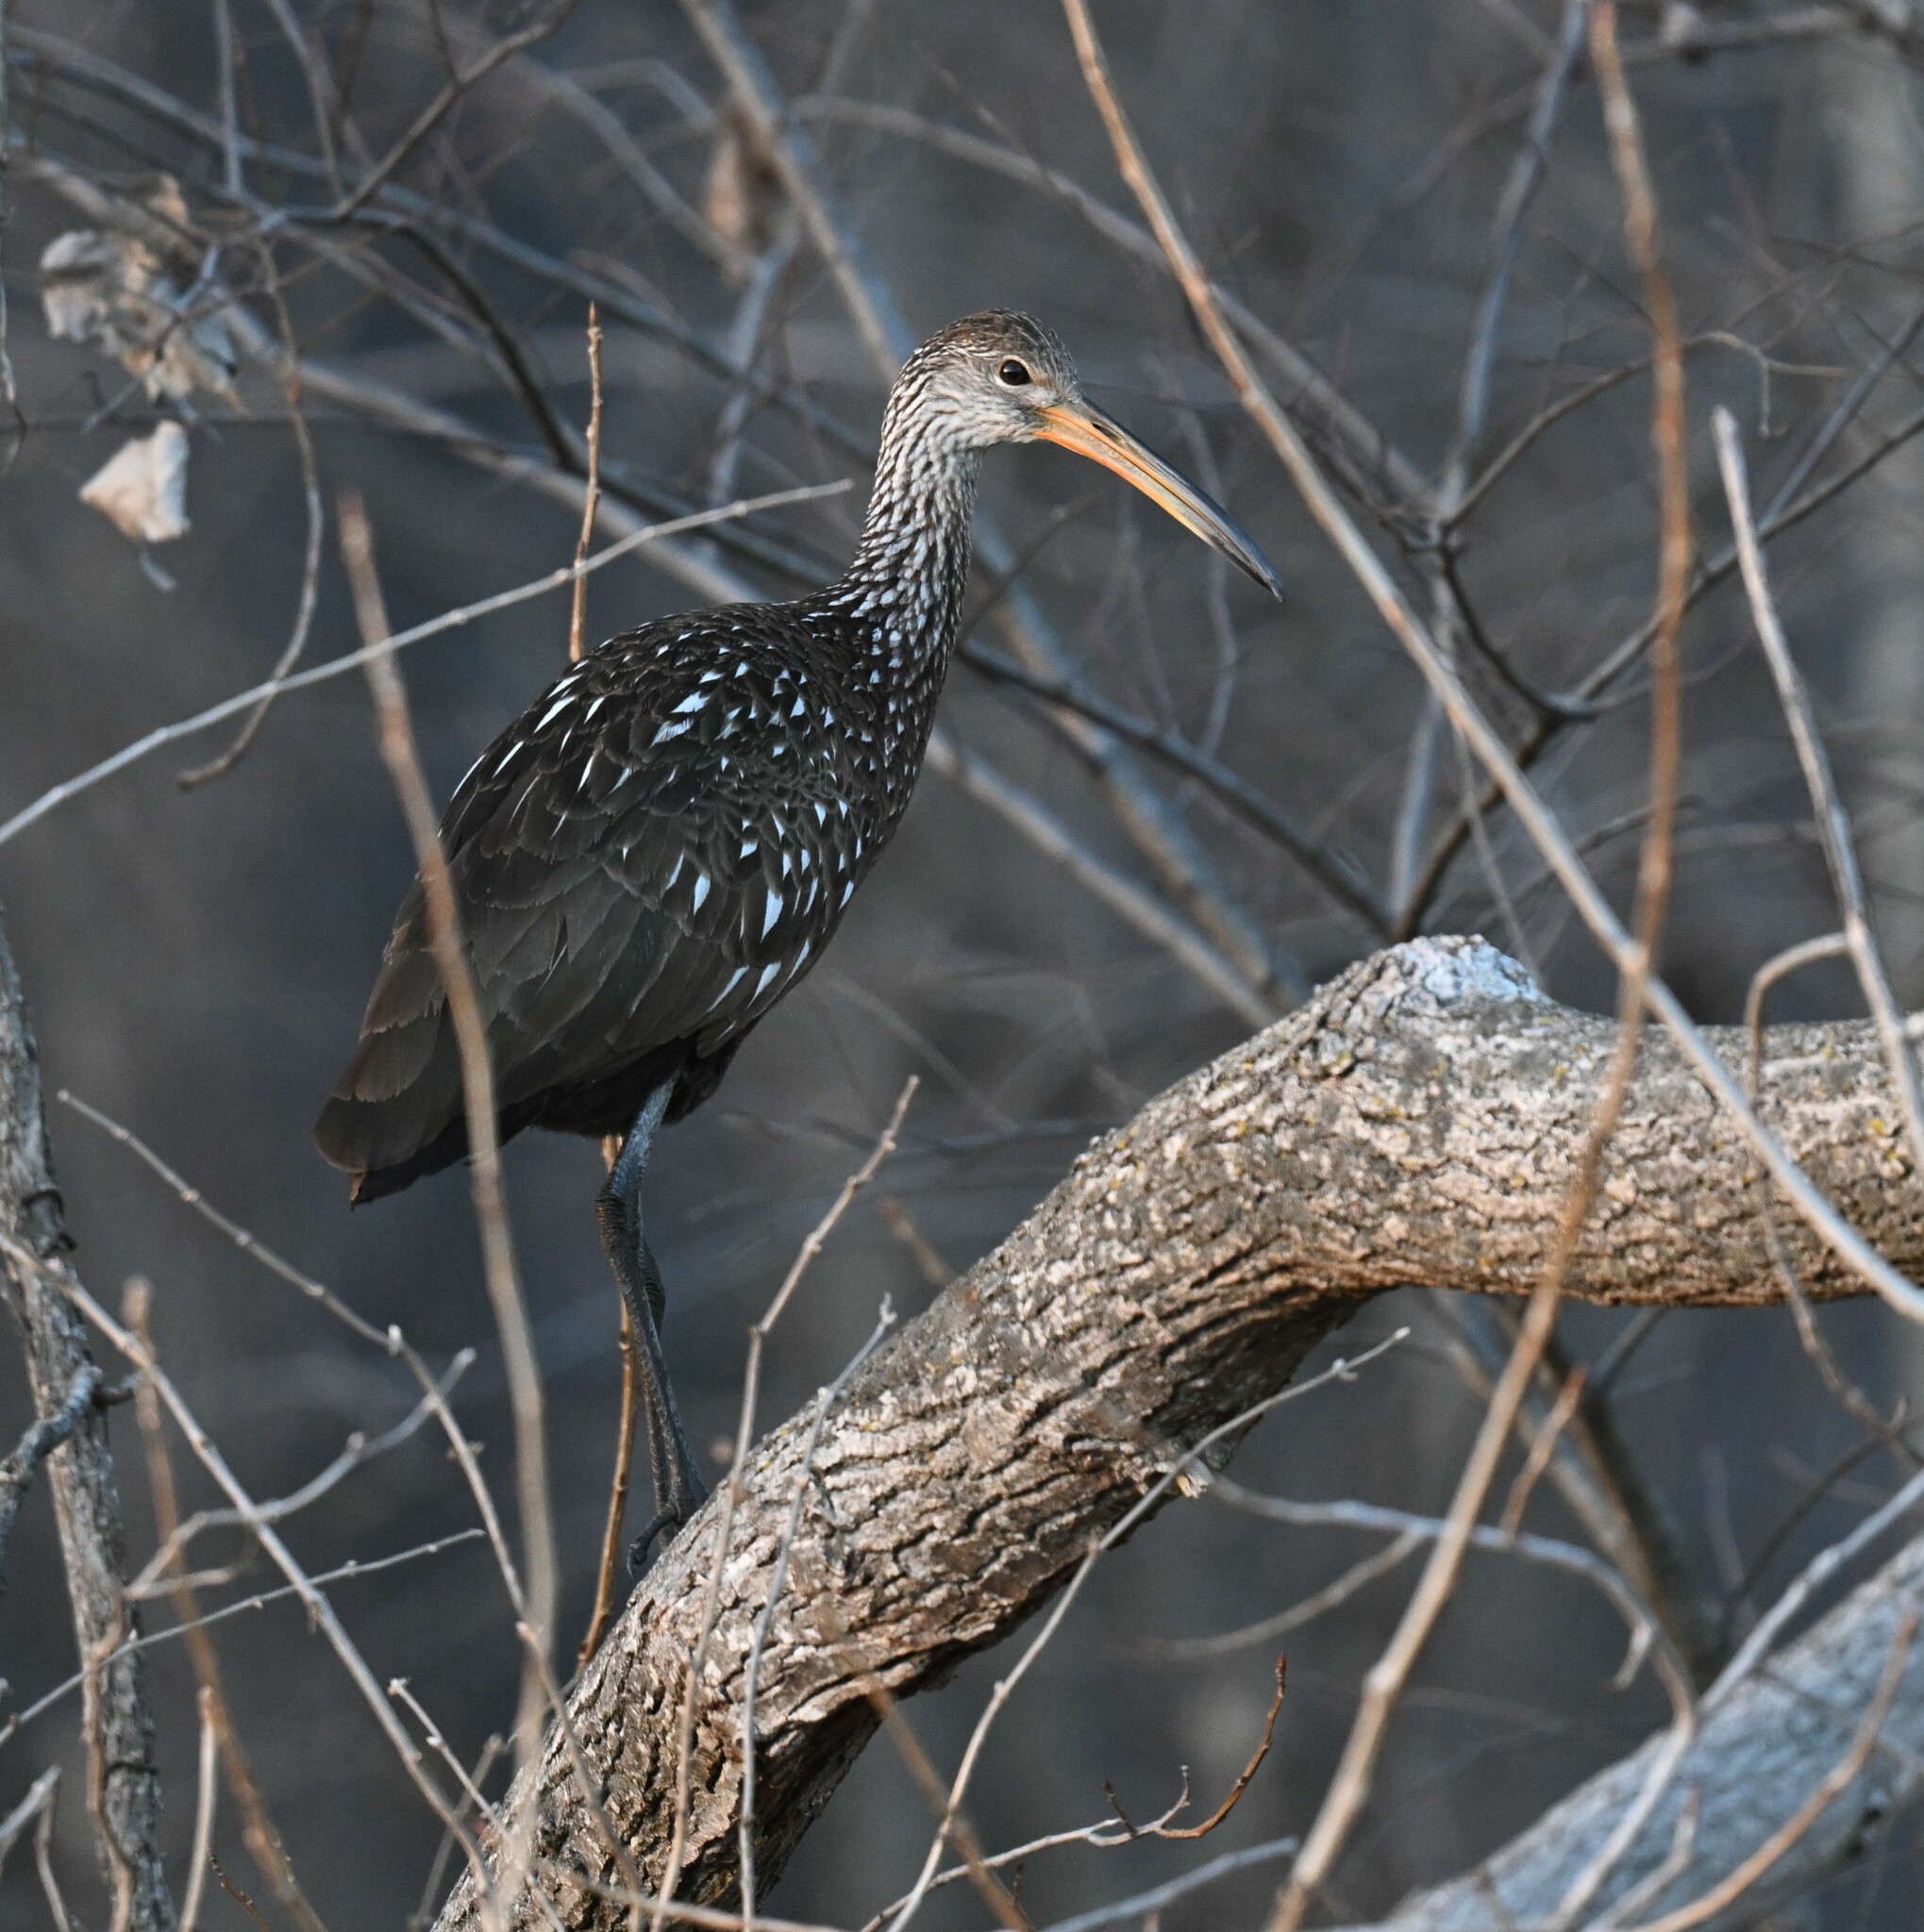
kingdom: Animalia
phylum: Chordata
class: Aves
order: Gruiformes
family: Aramidae
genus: Aramus
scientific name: Aramus guarauna
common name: Limpkin
